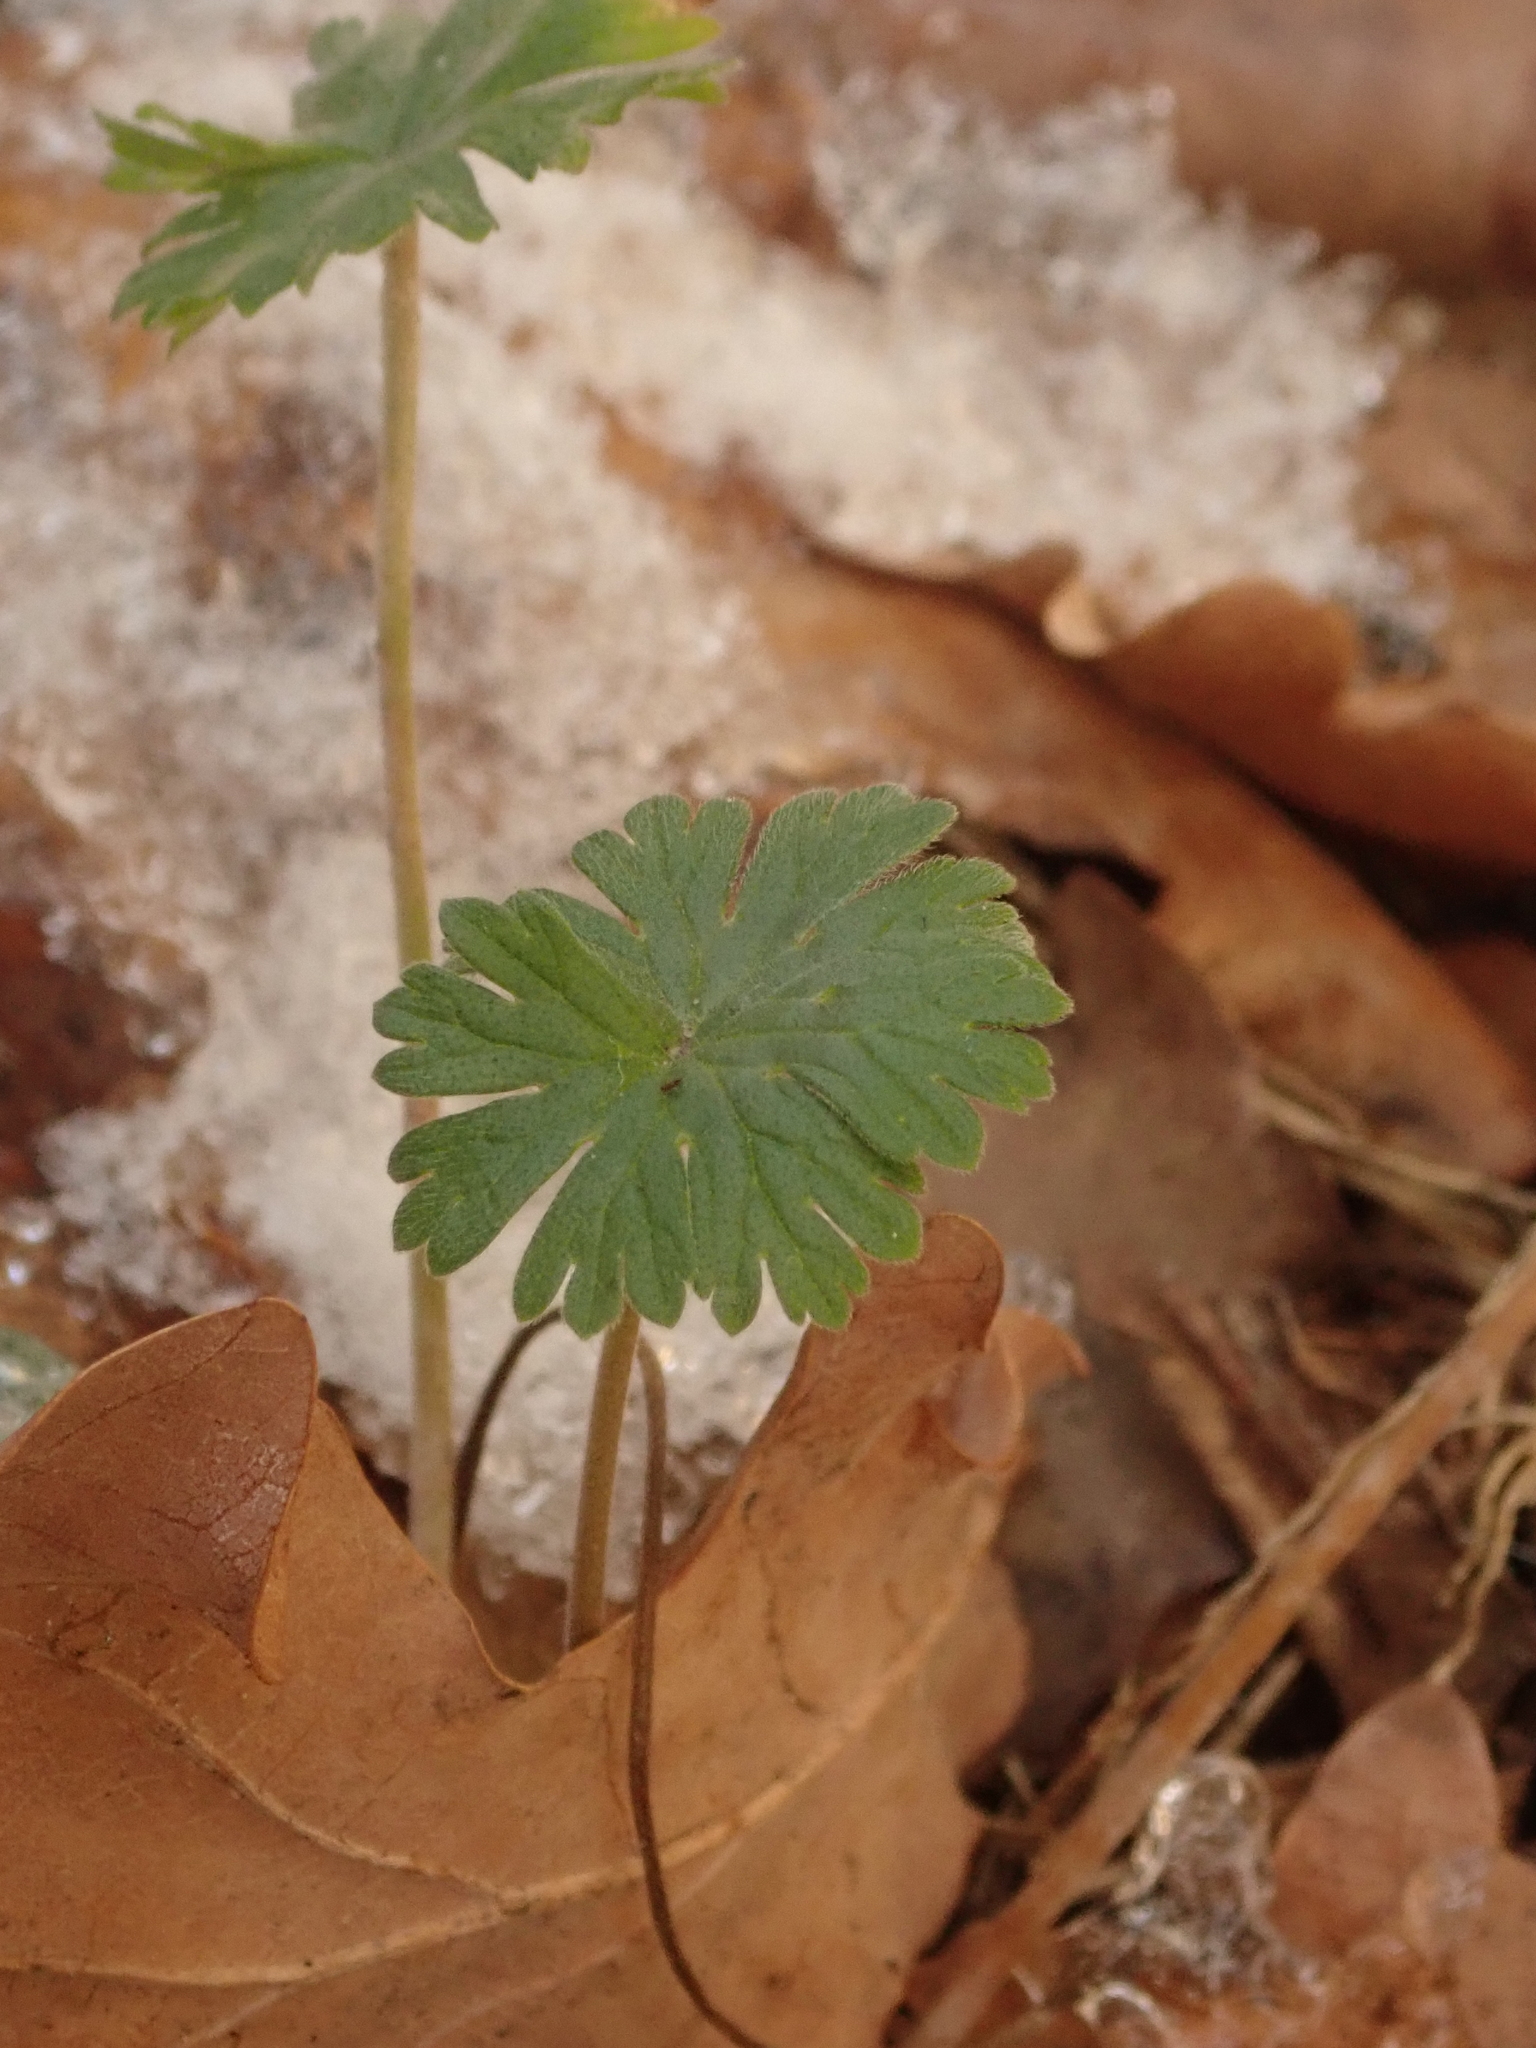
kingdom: Plantae
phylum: Tracheophyta
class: Magnoliopsida
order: Geraniales
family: Geraniaceae
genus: Geranium
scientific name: Geranium molle
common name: Dove's-foot crane's-bill
